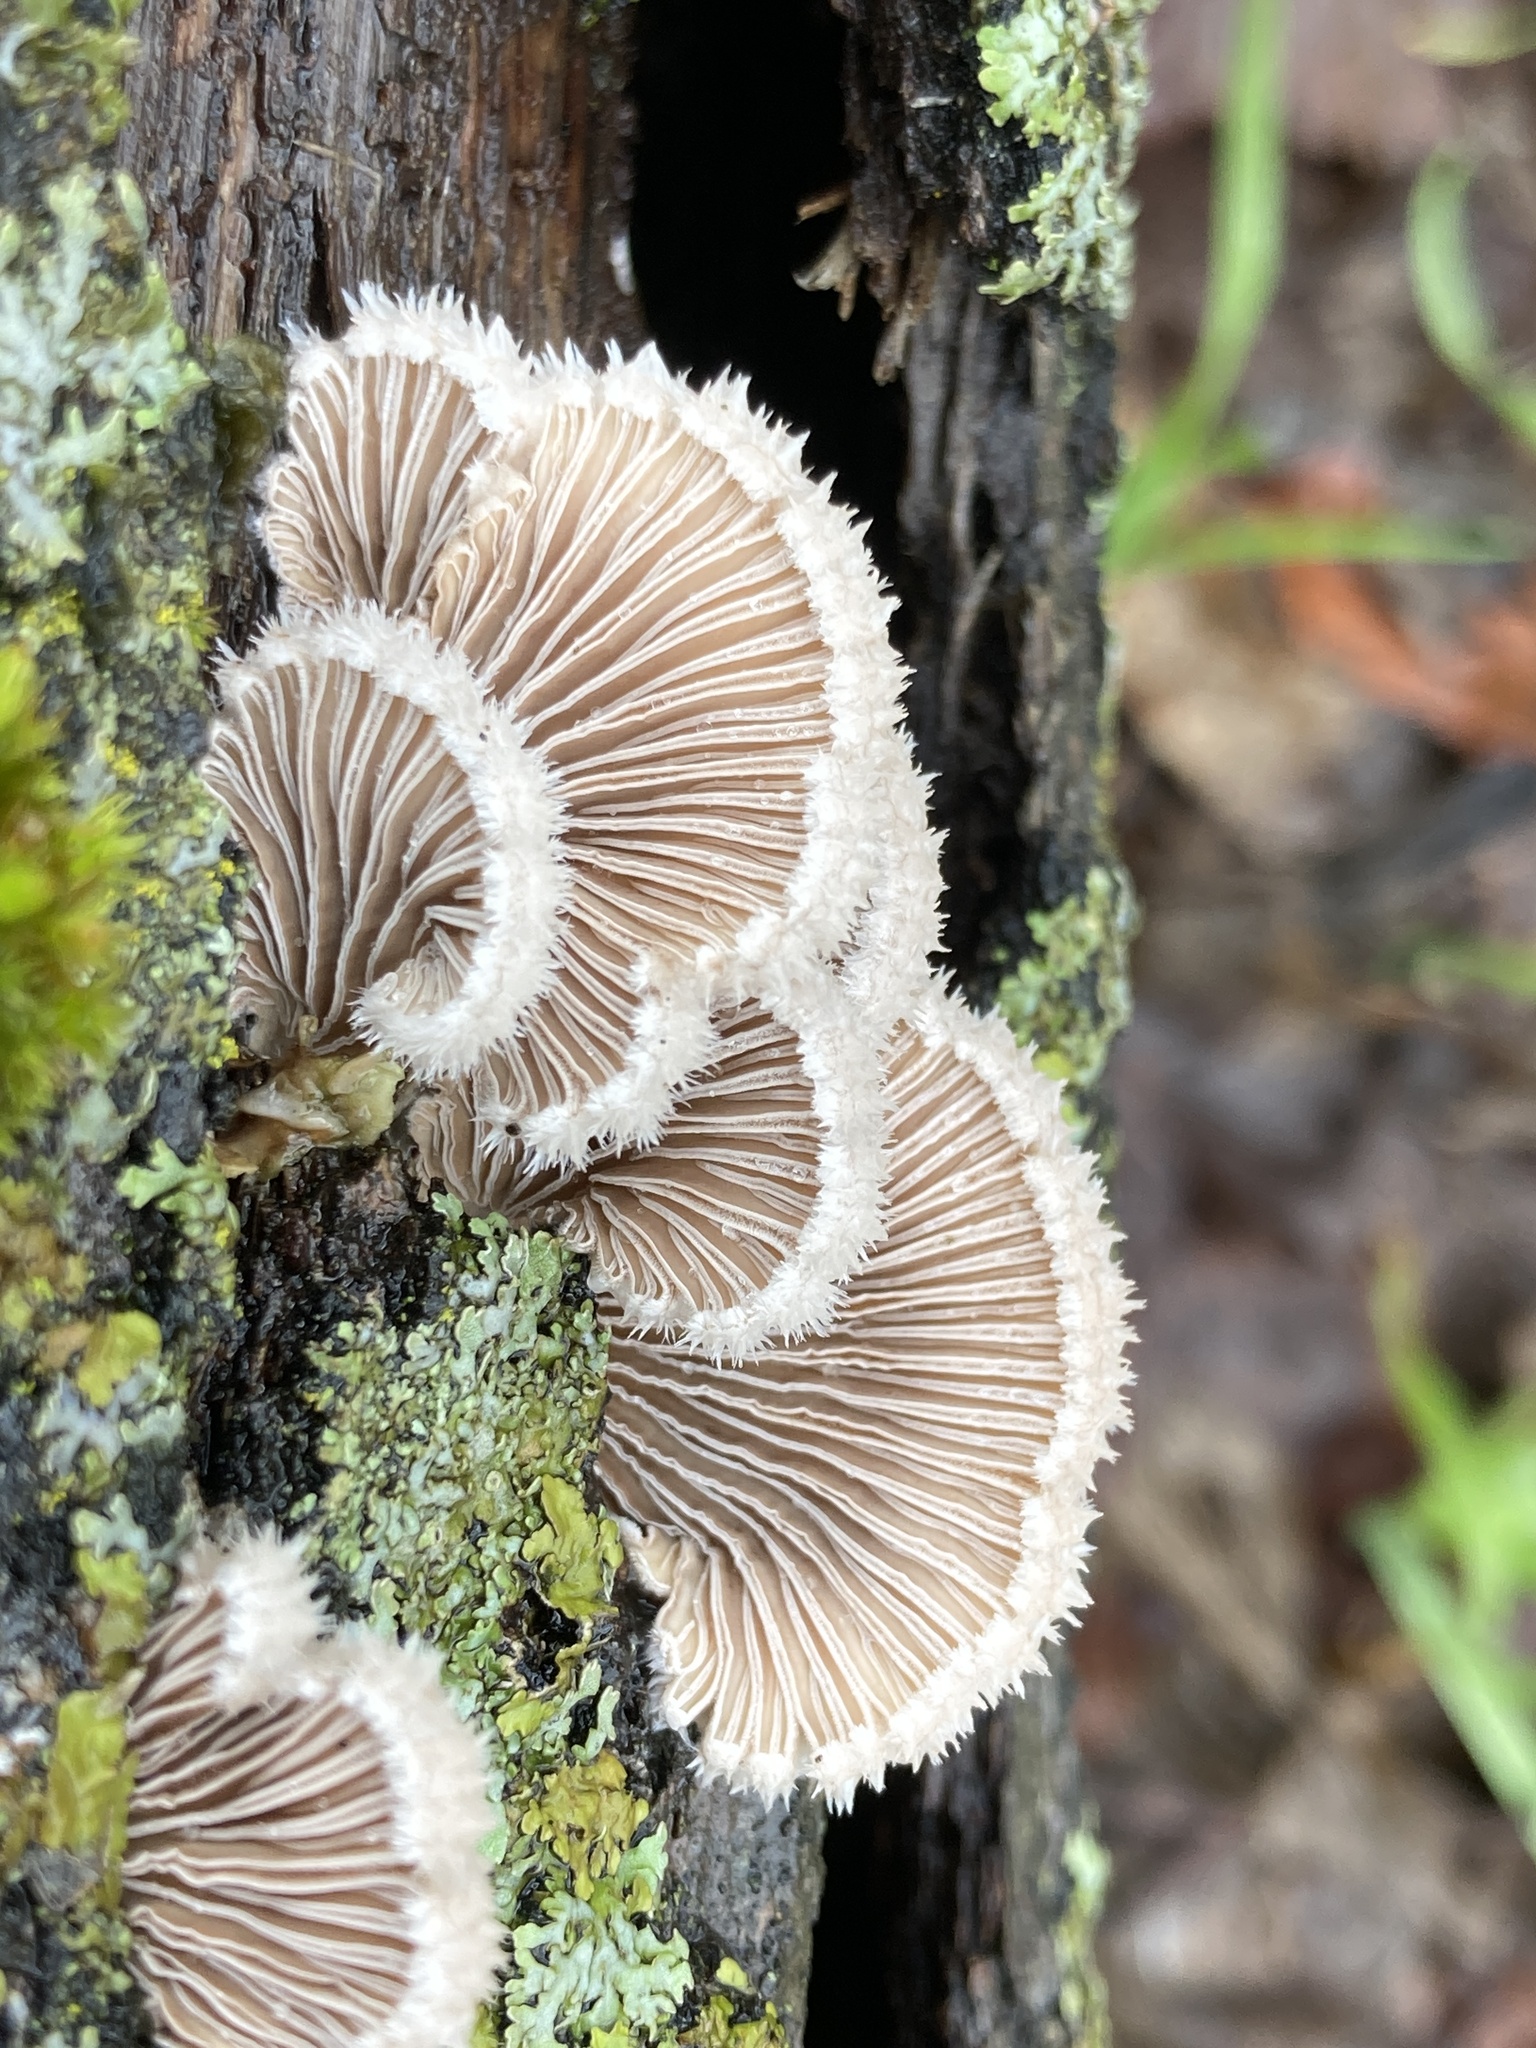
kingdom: Fungi
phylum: Basidiomycota
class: Agaricomycetes
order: Agaricales
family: Schizophyllaceae
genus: Schizophyllum
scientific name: Schizophyllum commune
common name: Common porecrust
